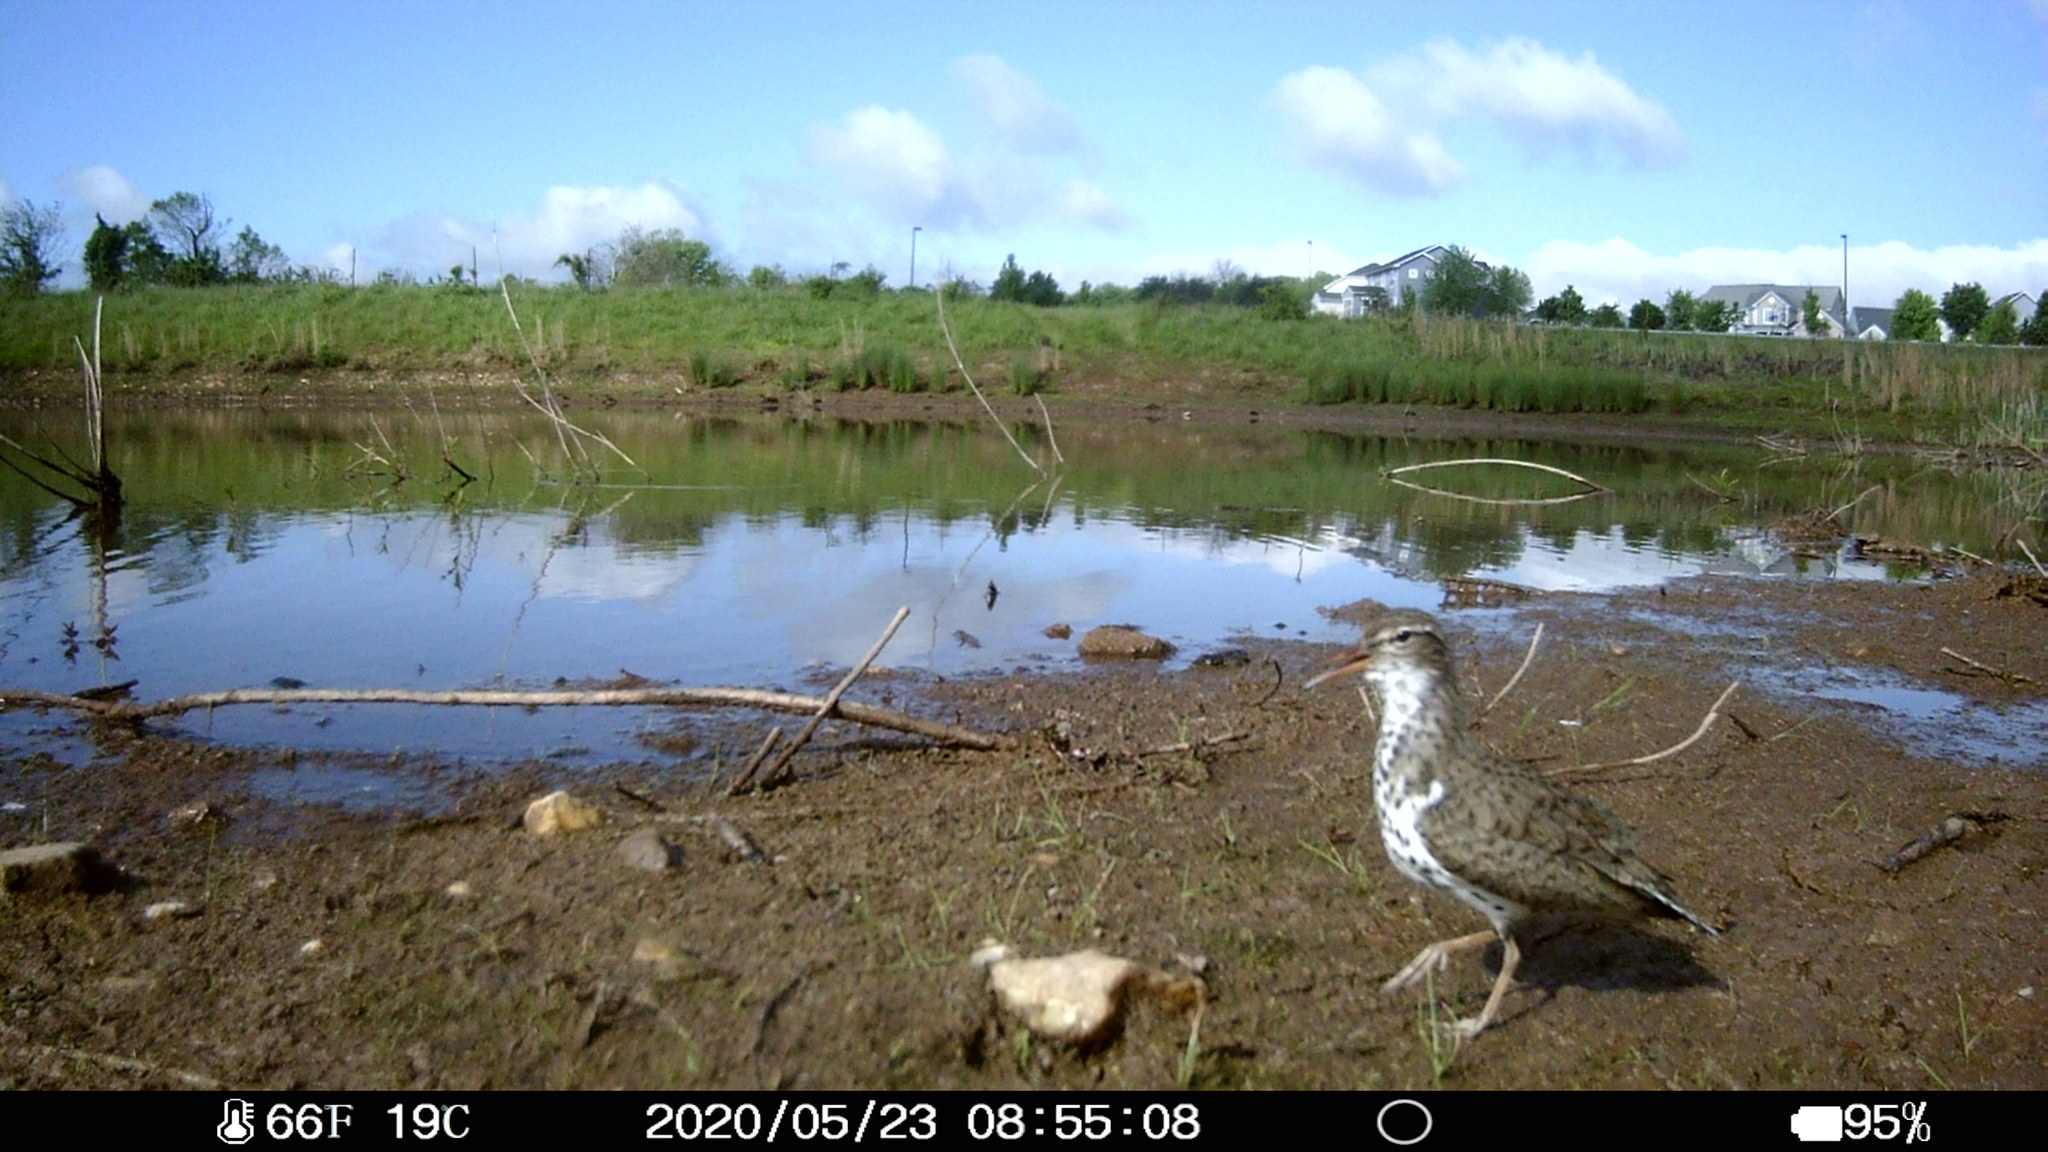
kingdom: Animalia
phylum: Chordata
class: Aves
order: Charadriiformes
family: Scolopacidae
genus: Actitis
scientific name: Actitis macularius
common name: Spotted sandpiper
